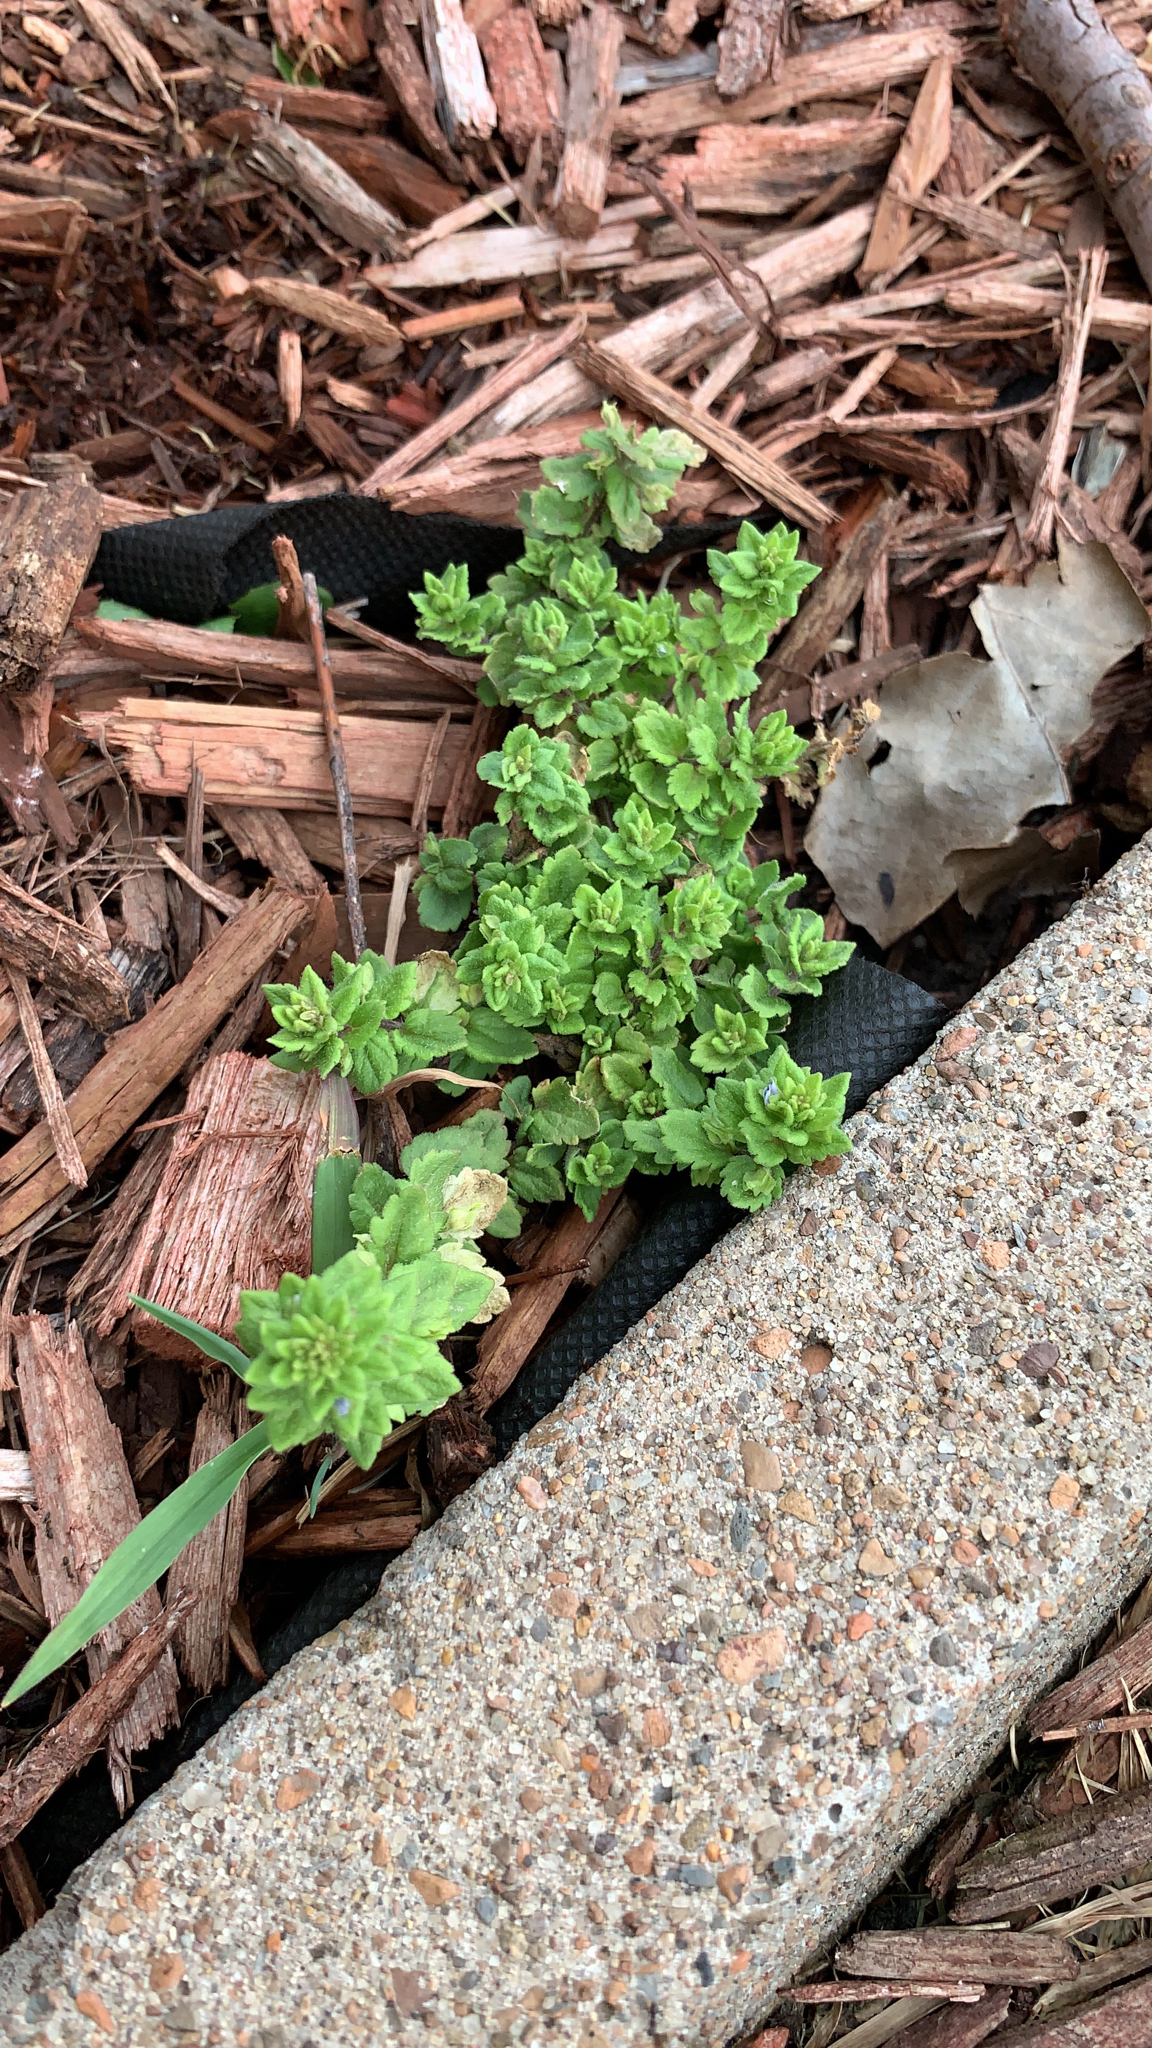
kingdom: Plantae
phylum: Tracheophyta
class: Magnoliopsida
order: Lamiales
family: Plantaginaceae
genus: Veronica
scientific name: Veronica arvensis
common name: Corn speedwell
